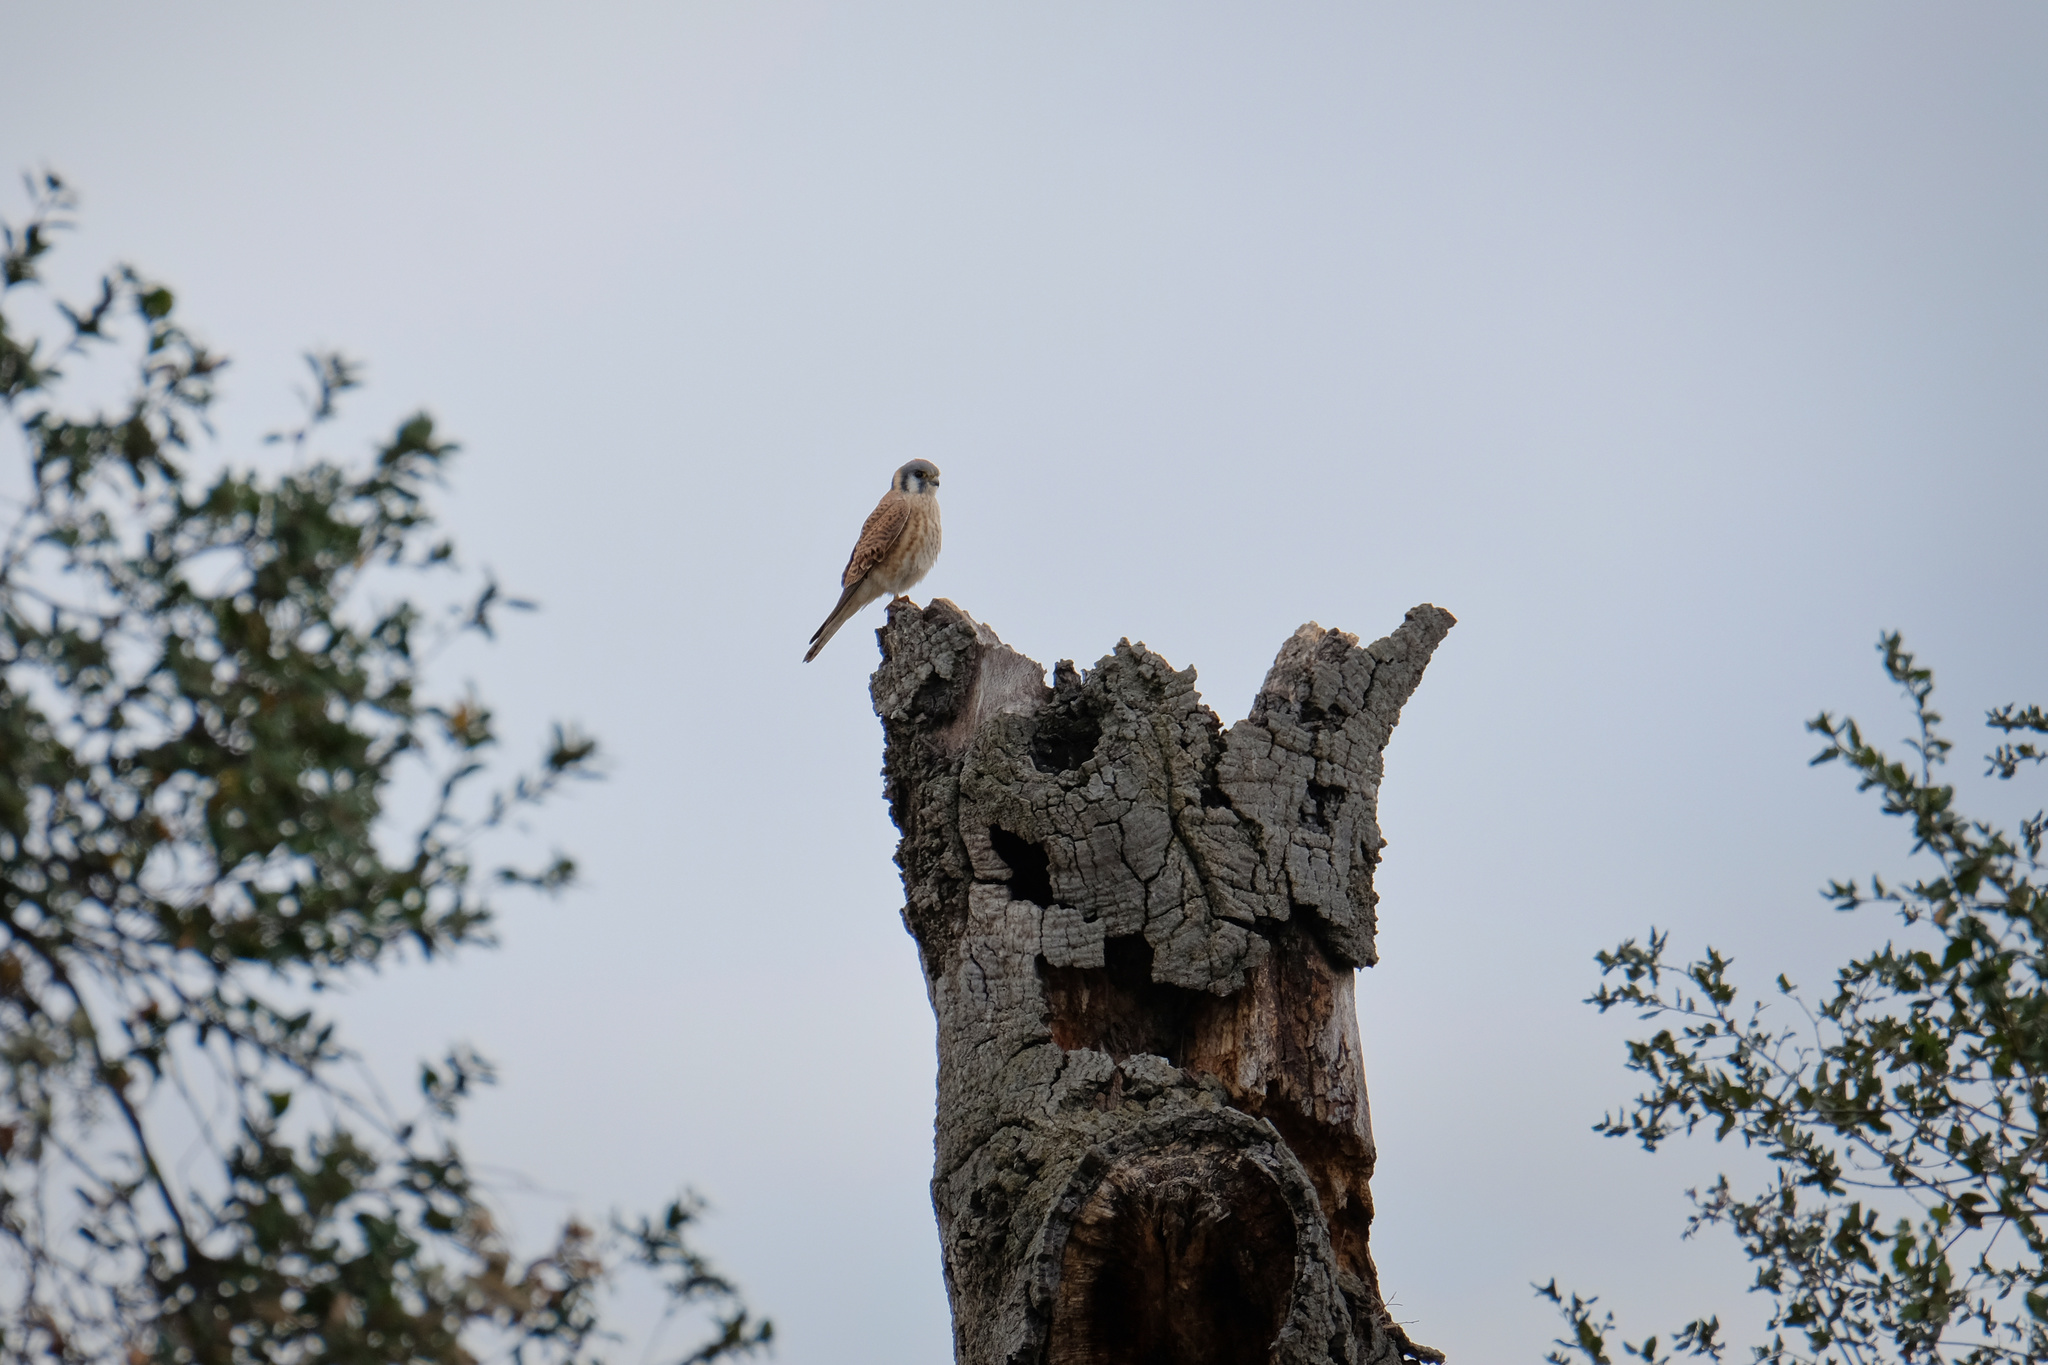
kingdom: Animalia
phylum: Chordata
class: Aves
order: Falconiformes
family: Falconidae
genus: Falco
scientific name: Falco sparverius
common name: American kestrel
